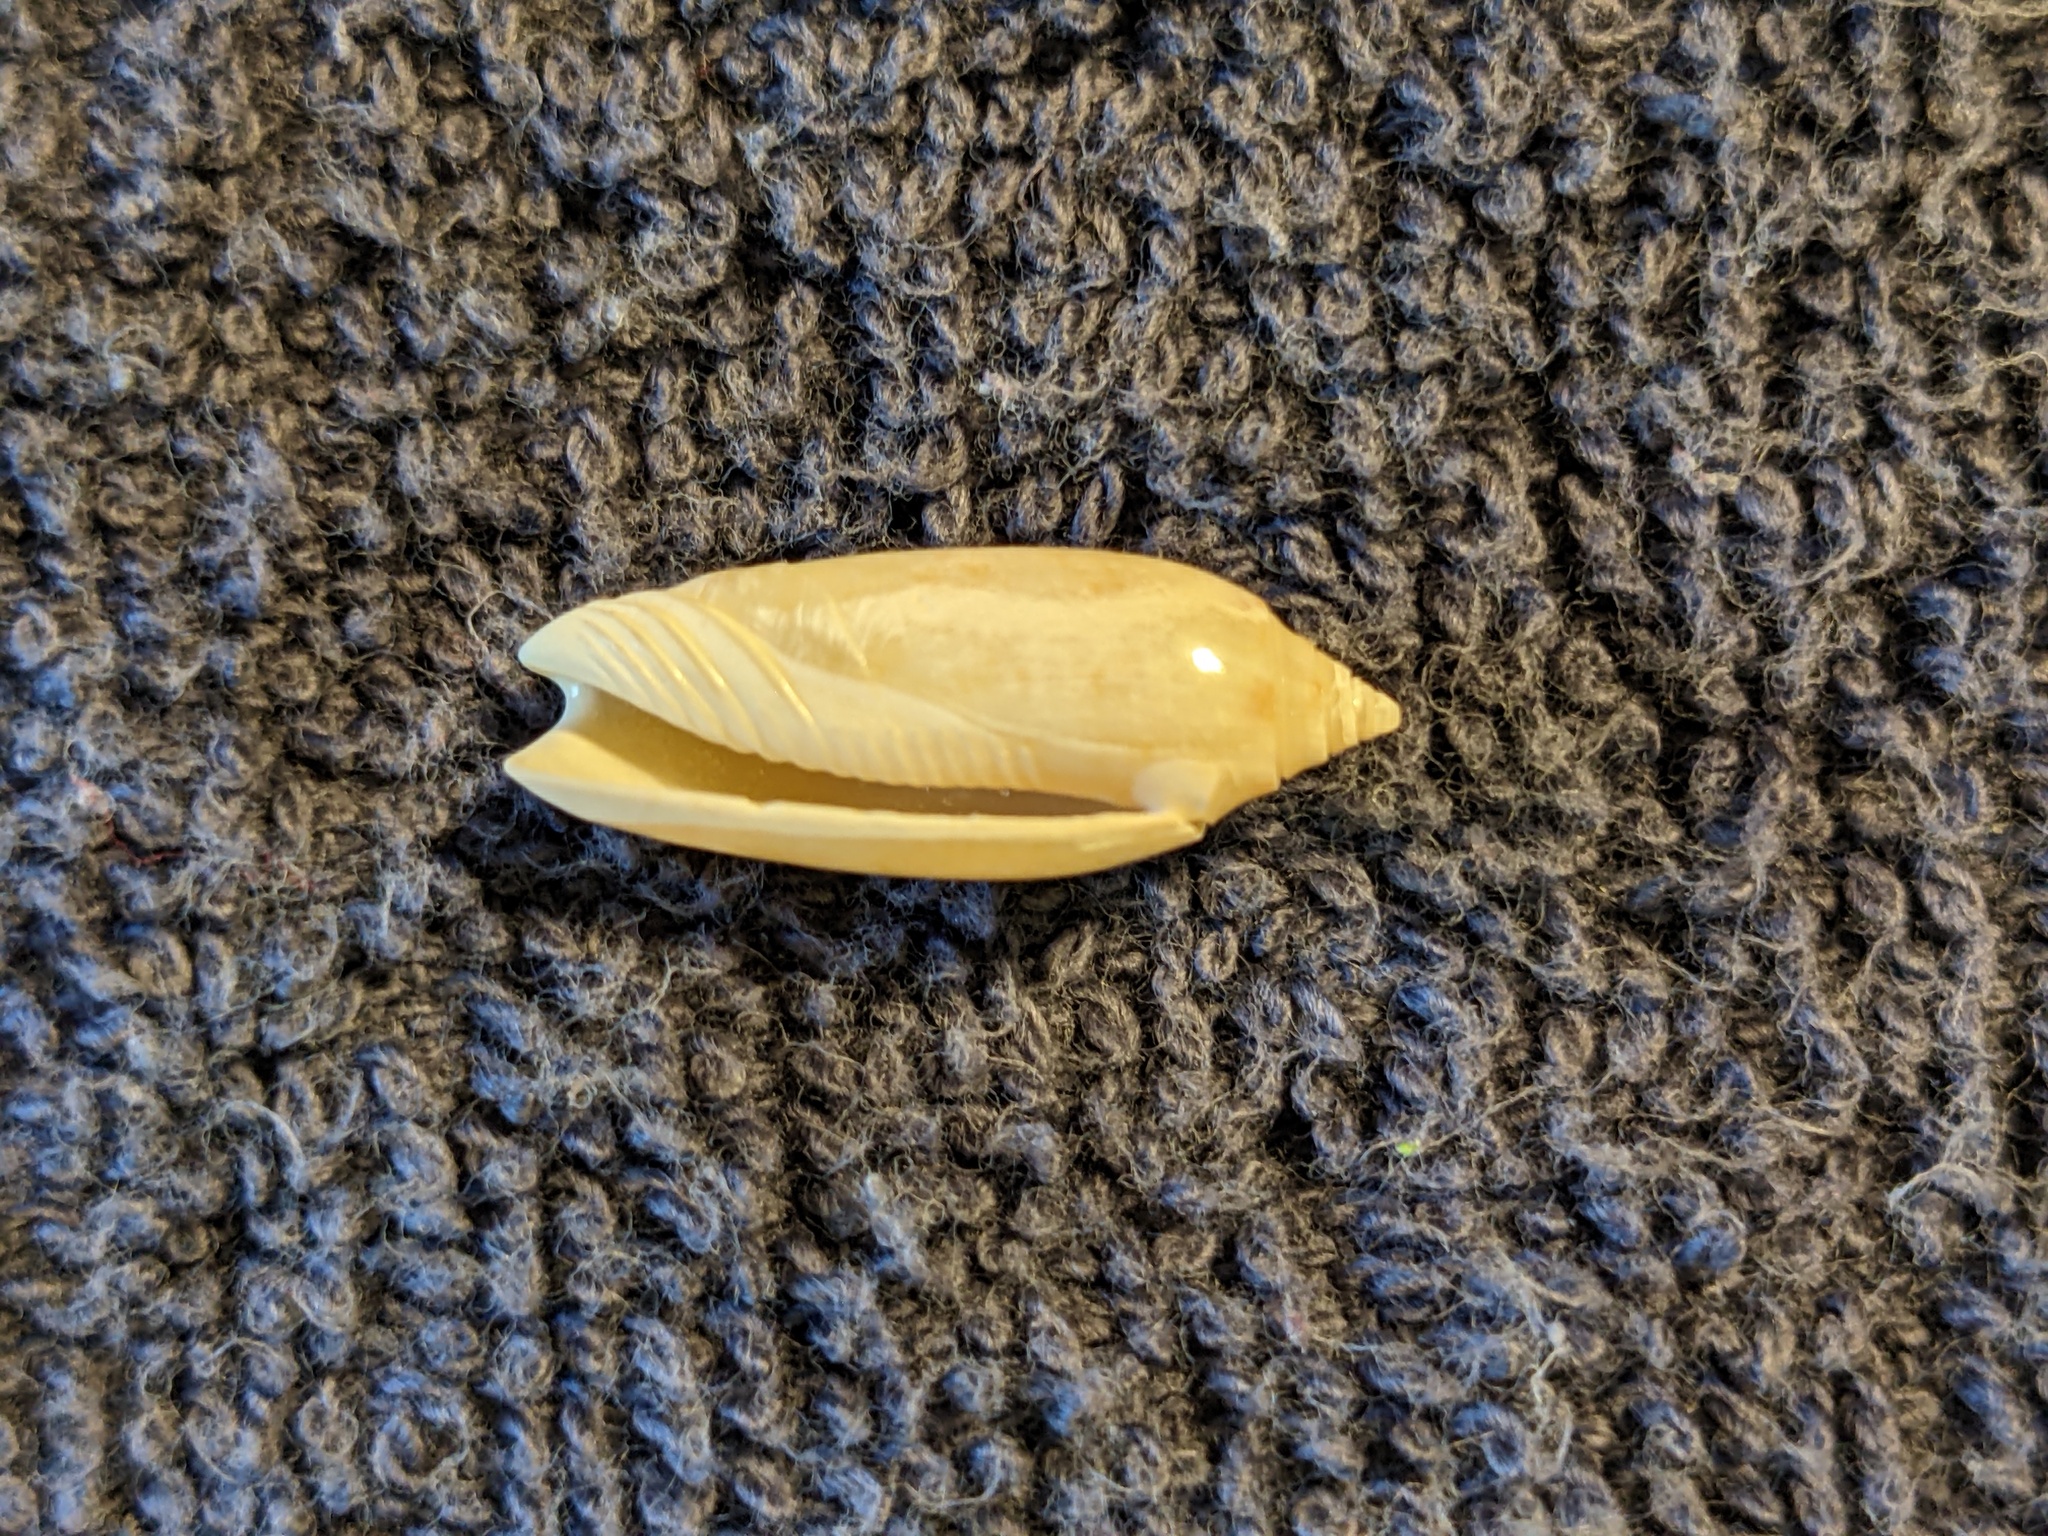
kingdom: Animalia
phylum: Mollusca
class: Gastropoda
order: Neogastropoda
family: Olividae
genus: Oliva
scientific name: Oliva sayana
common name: Lettered olive
